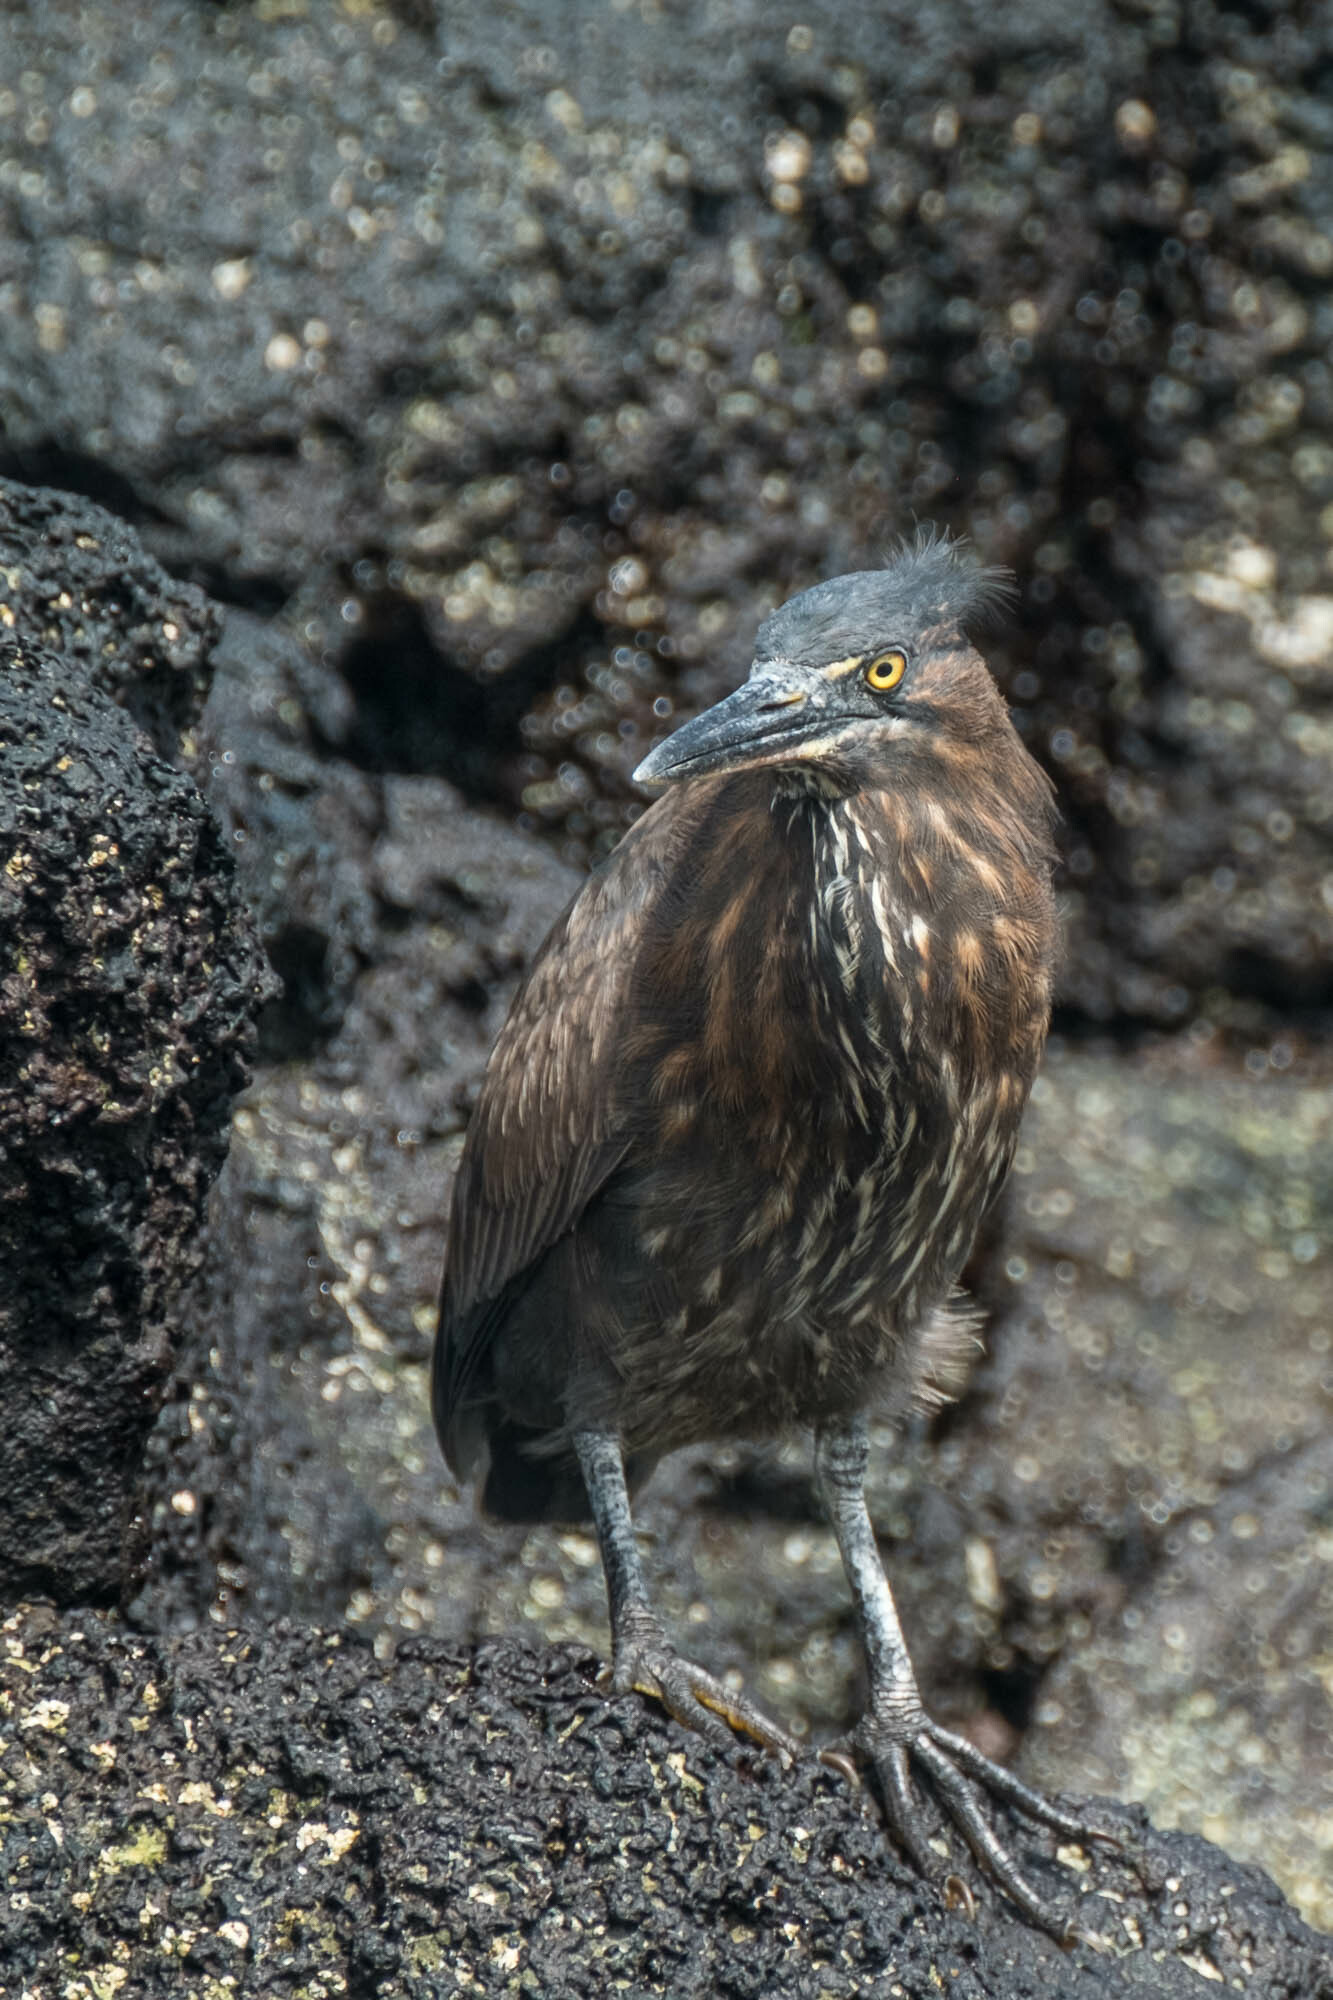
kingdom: Animalia
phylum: Chordata
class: Aves
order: Pelecaniformes
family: Ardeidae
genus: Butorides
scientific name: Butorides striata
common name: Striated heron
